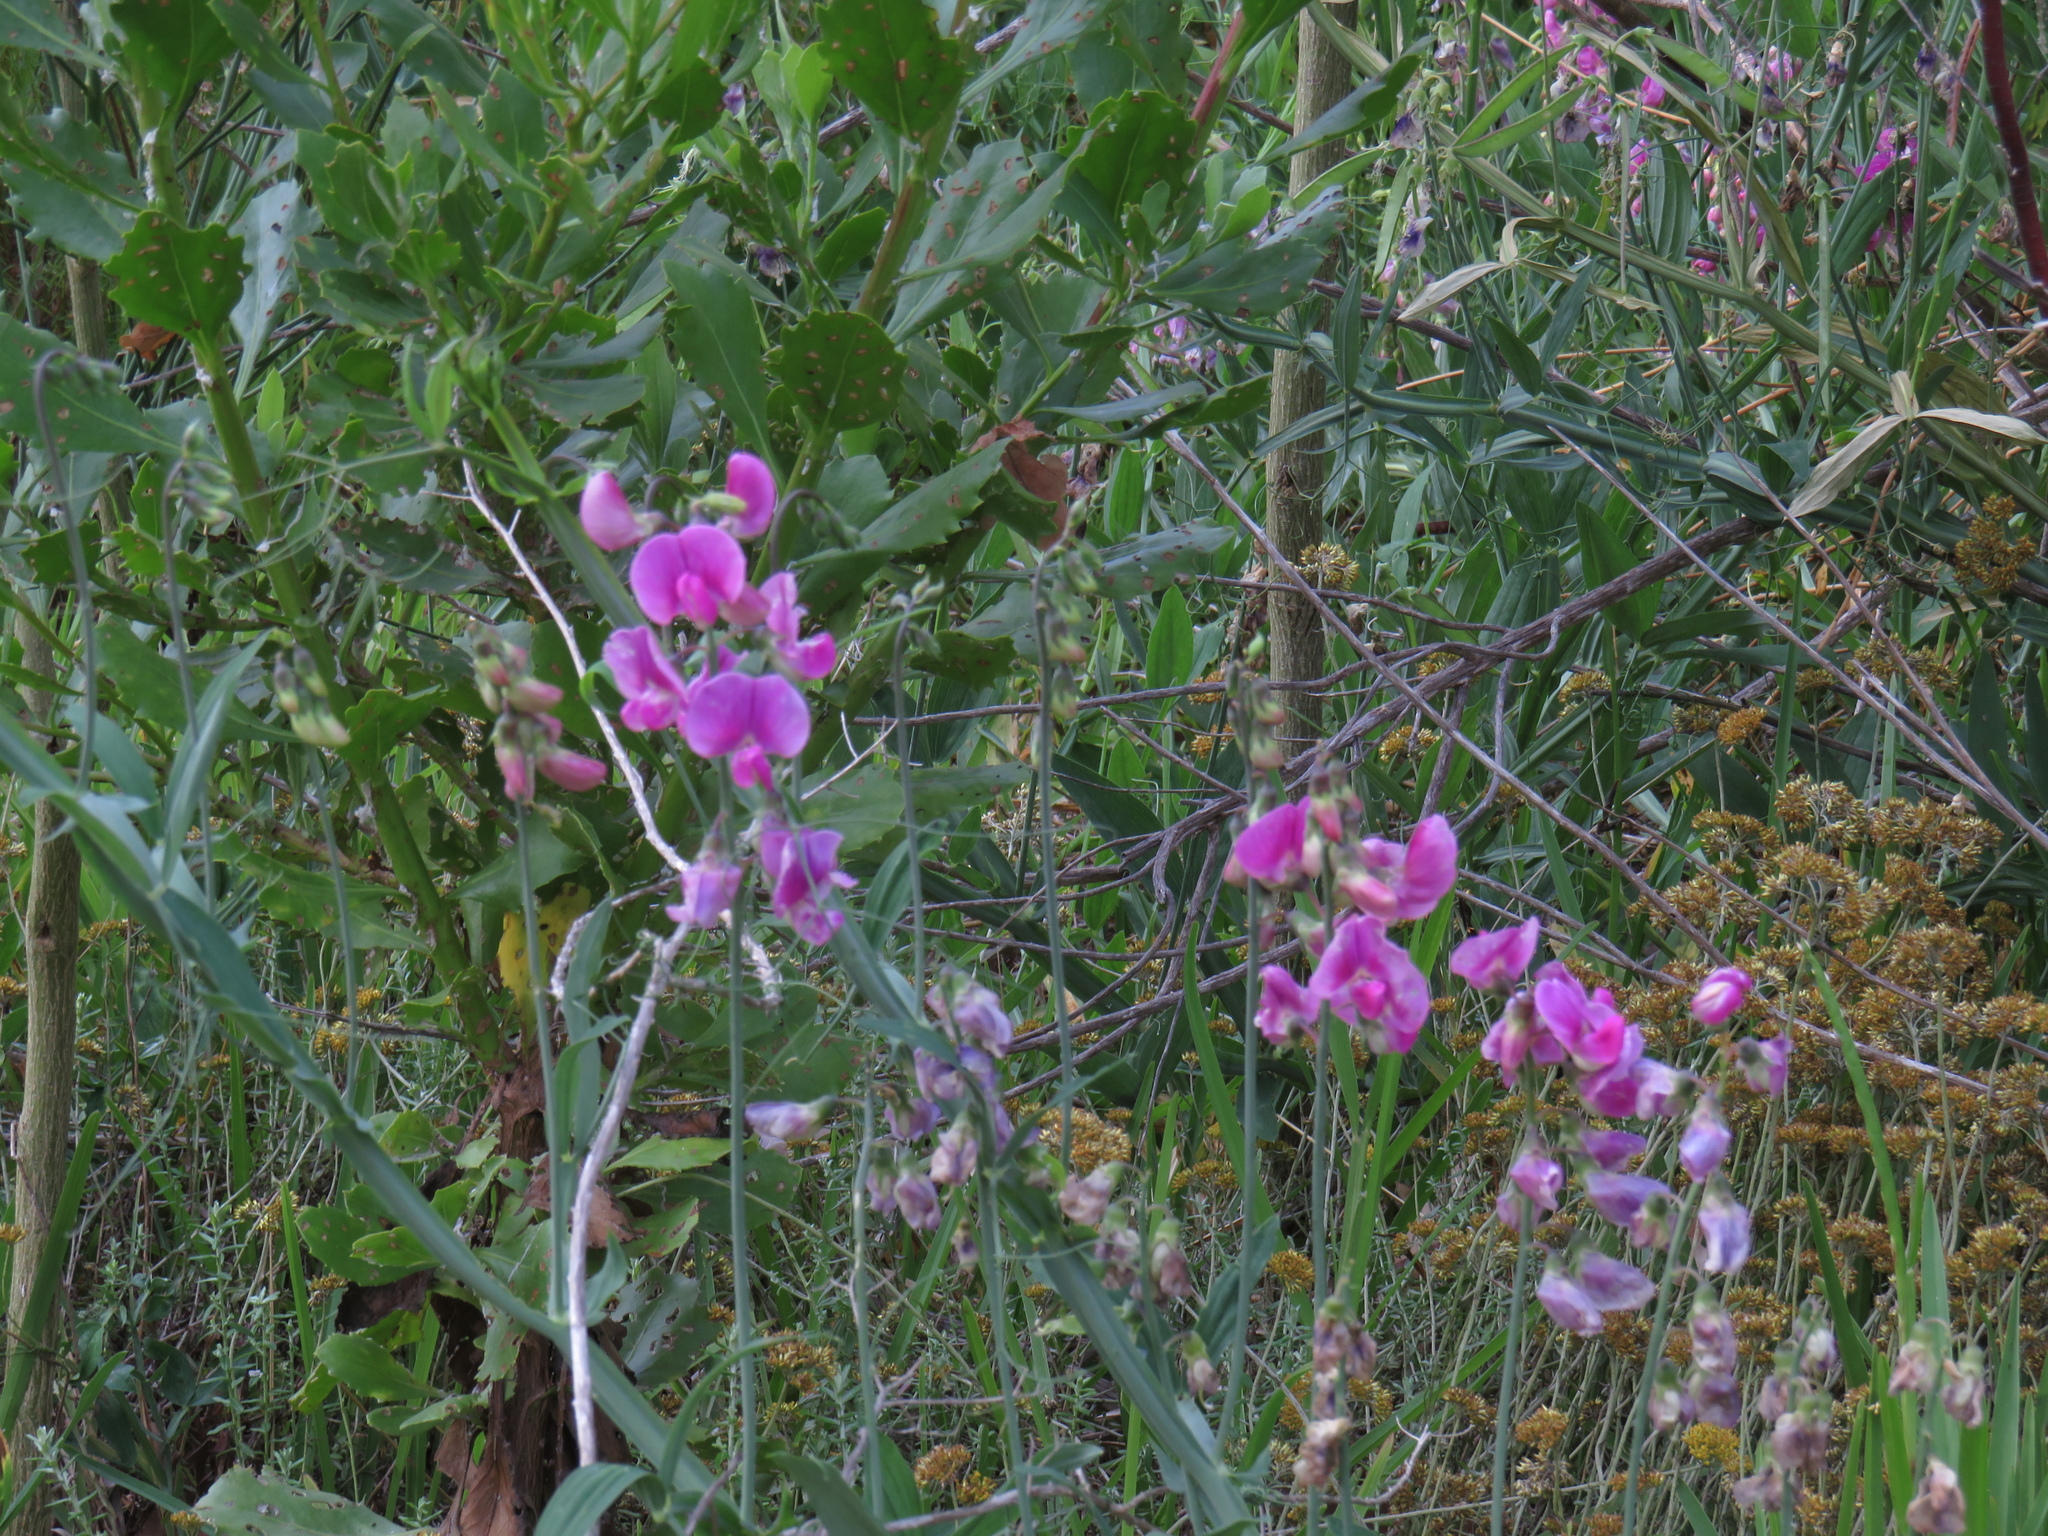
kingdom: Plantae
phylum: Tracheophyta
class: Magnoliopsida
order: Fabales
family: Fabaceae
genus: Lathyrus
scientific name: Lathyrus latifolius
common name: Perennial pea
